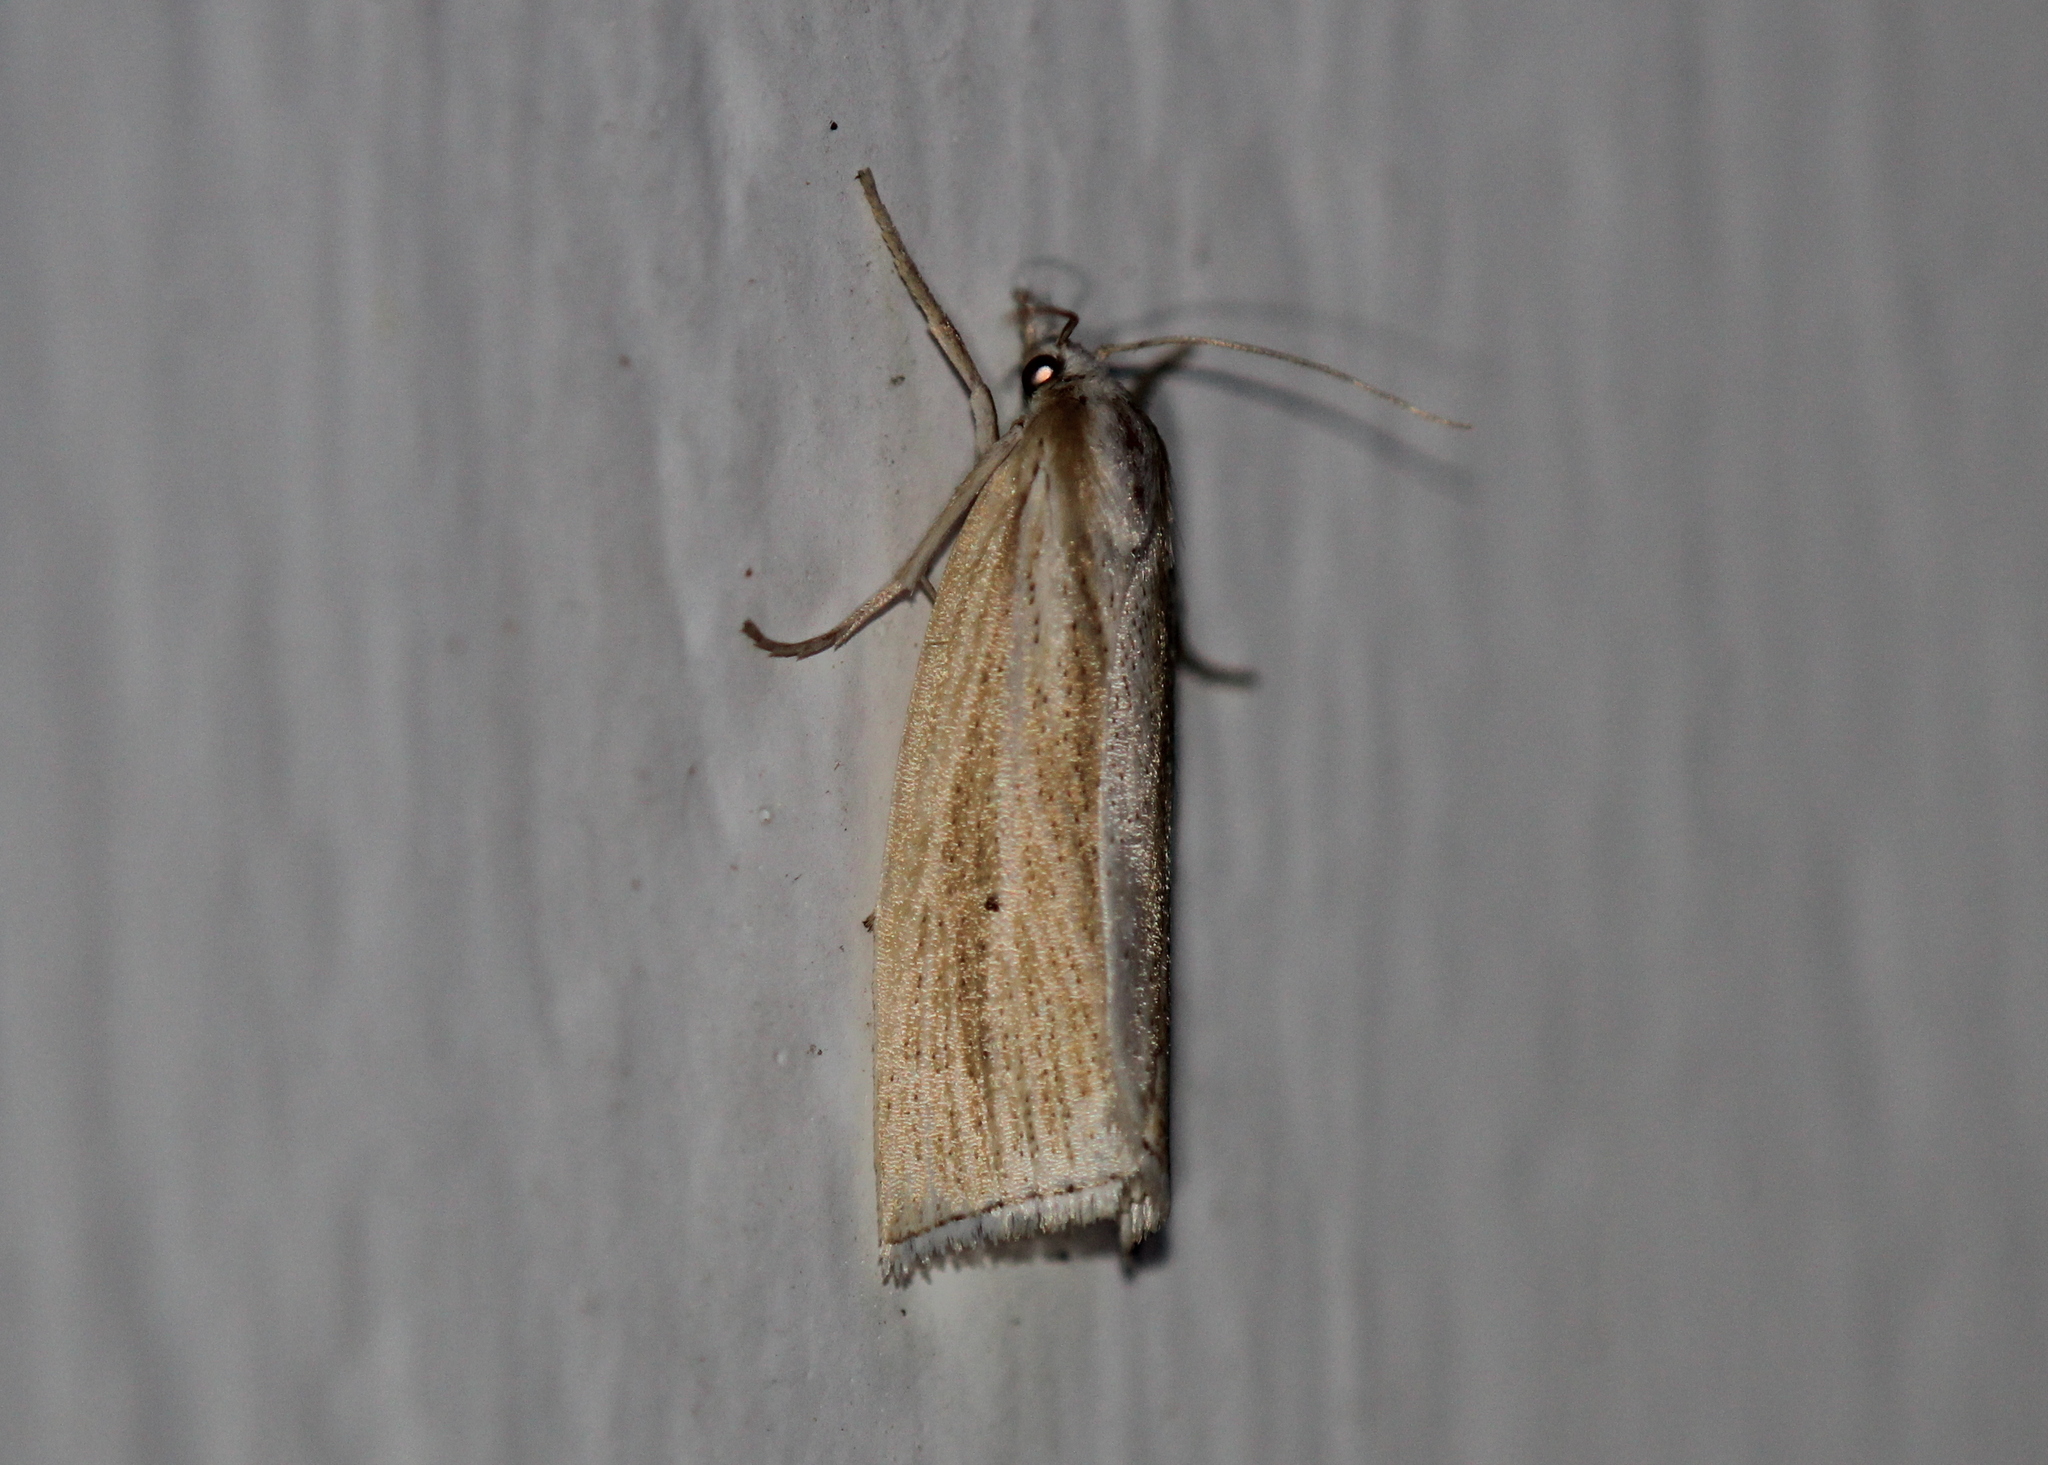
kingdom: Animalia
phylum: Arthropoda
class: Insecta
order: Lepidoptera
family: Crambidae
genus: Epina
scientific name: Epina alleni
